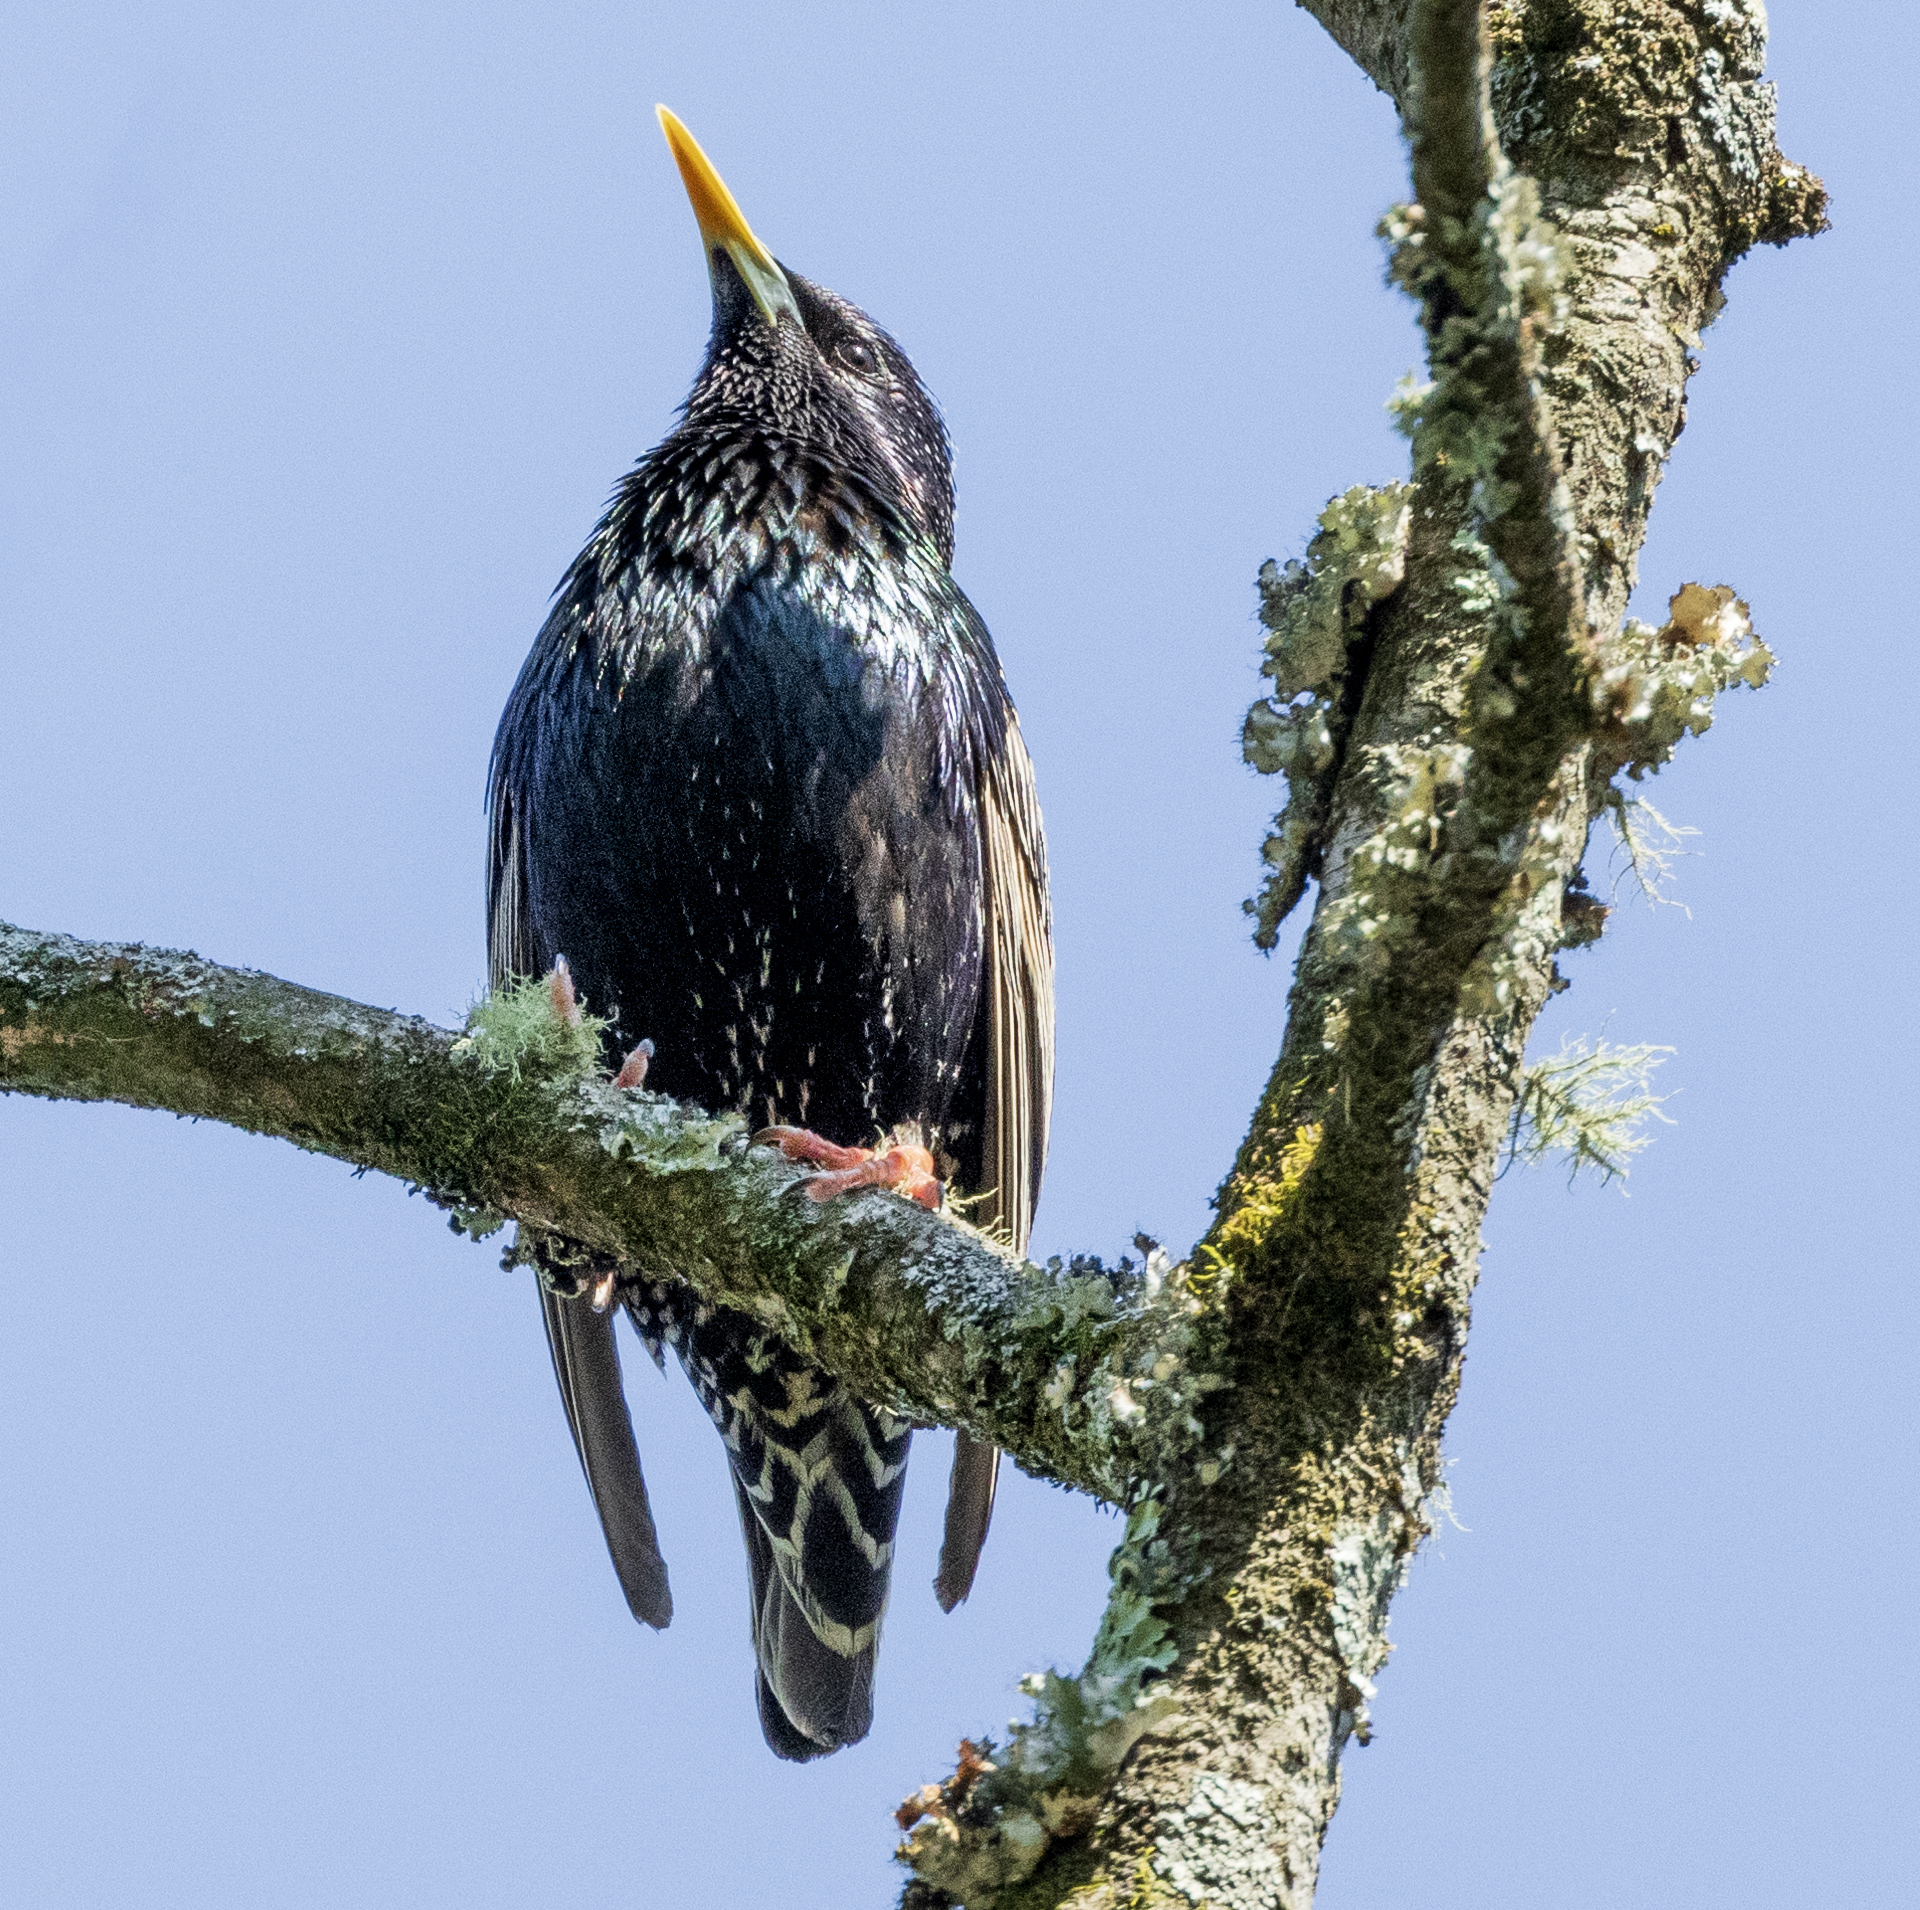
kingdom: Animalia
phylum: Chordata
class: Aves
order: Passeriformes
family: Sturnidae
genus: Sturnus
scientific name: Sturnus vulgaris
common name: Common starling
